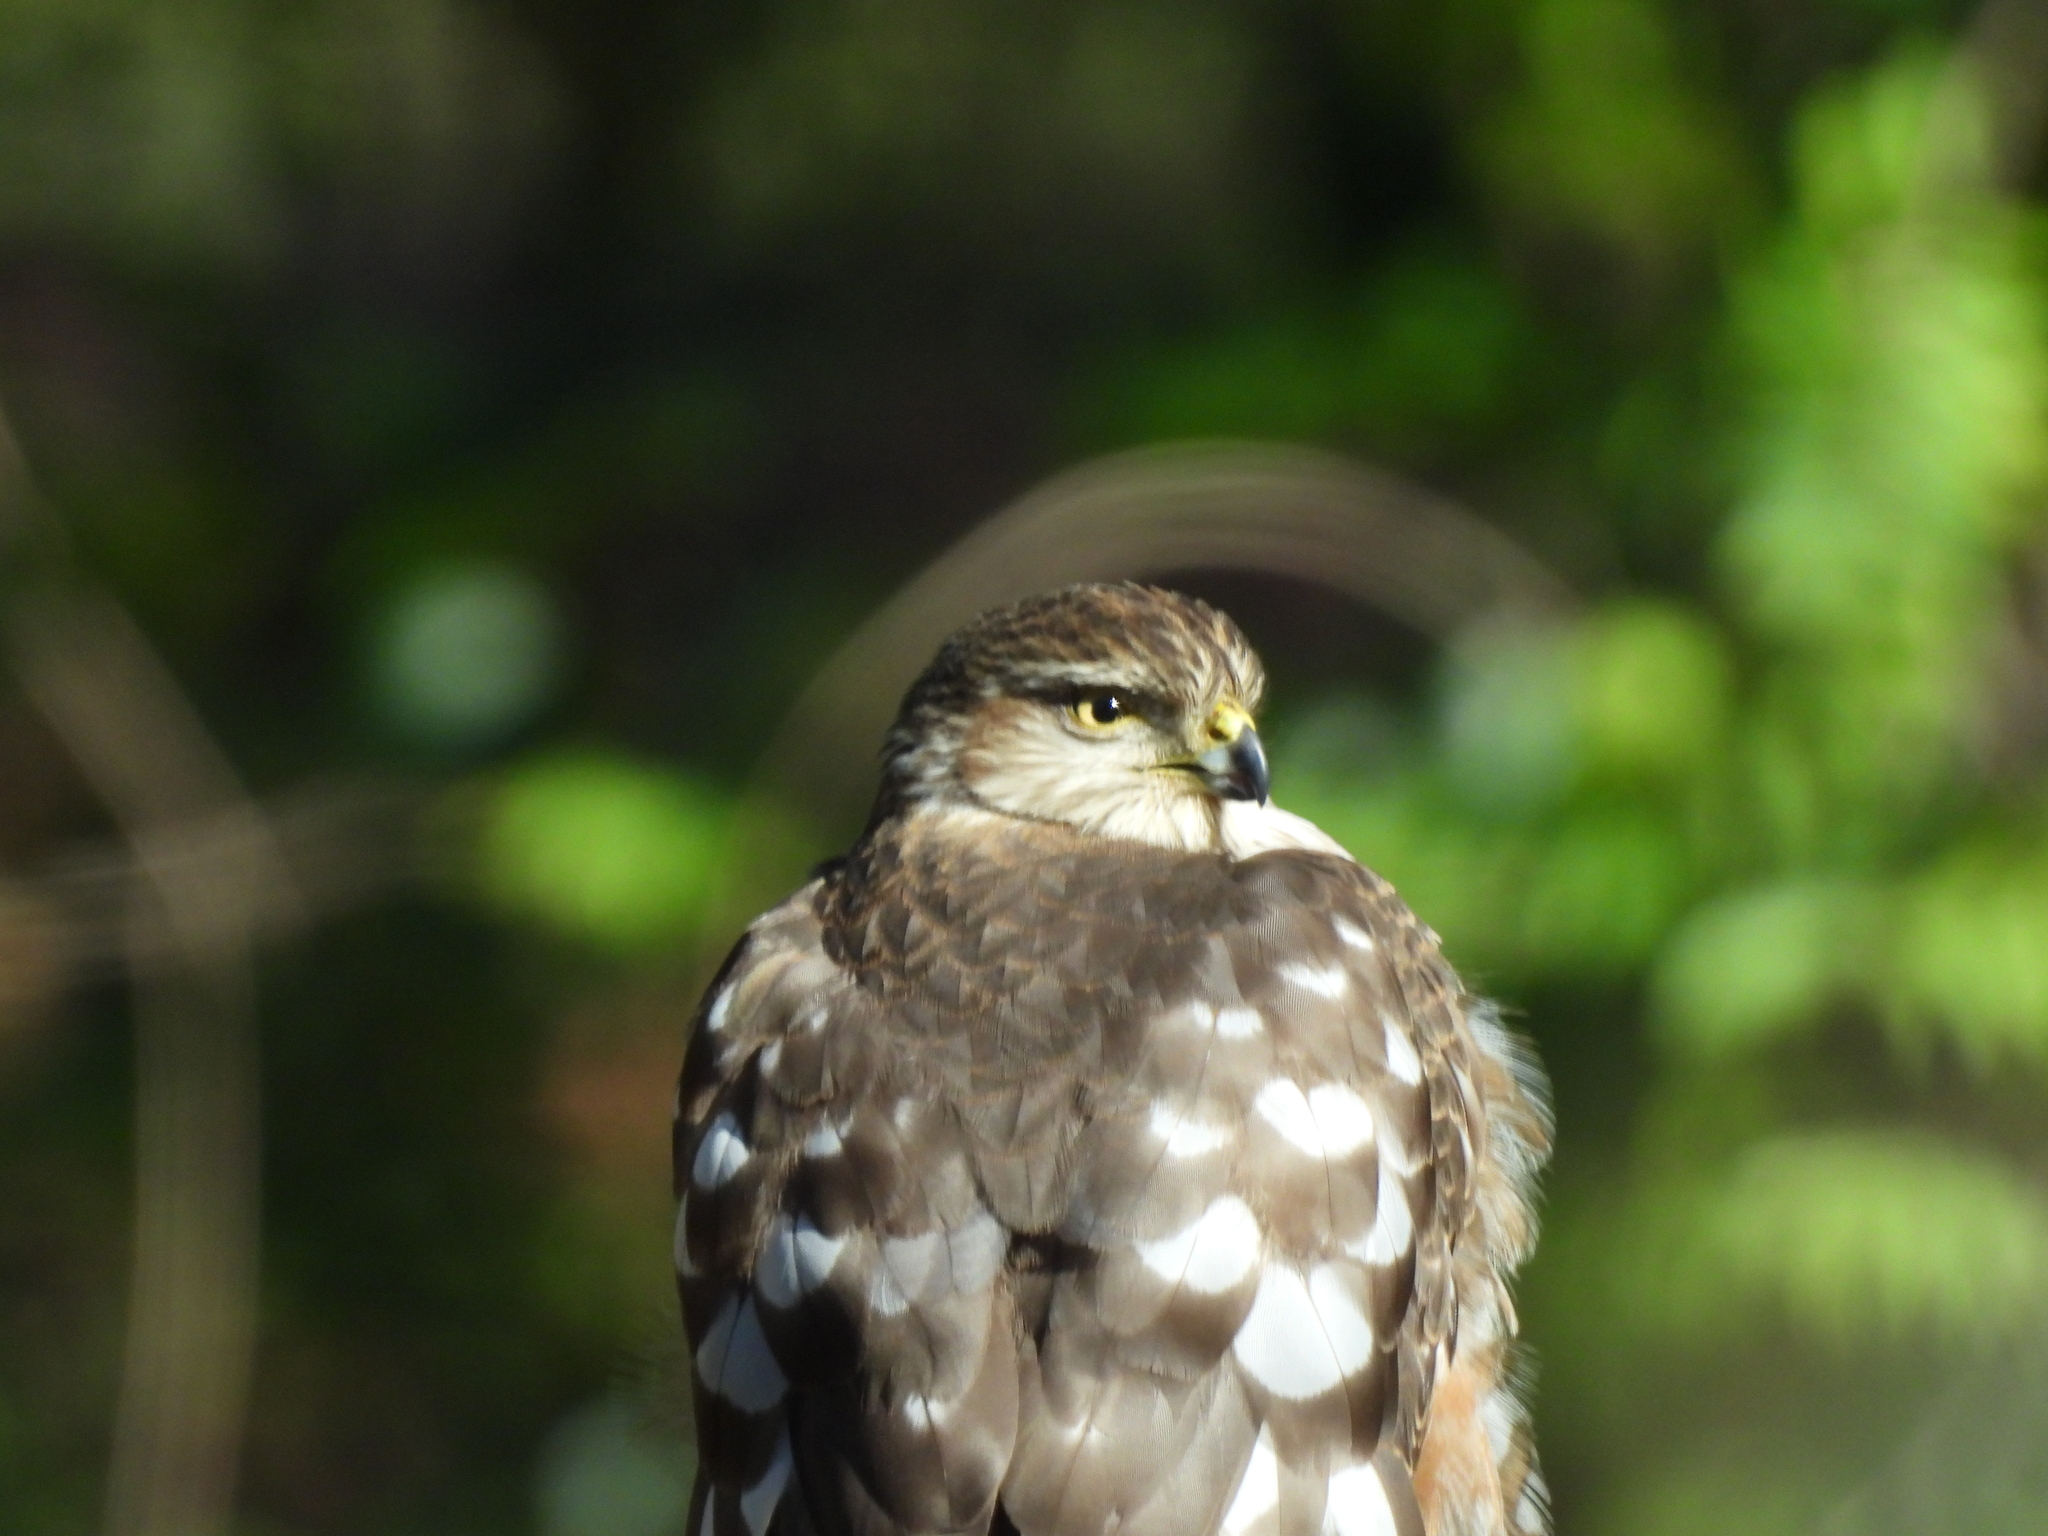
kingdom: Animalia
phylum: Chordata
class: Aves
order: Accipitriformes
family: Accipitridae
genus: Accipiter
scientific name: Accipiter striatus
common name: Sharp-shinned hawk
